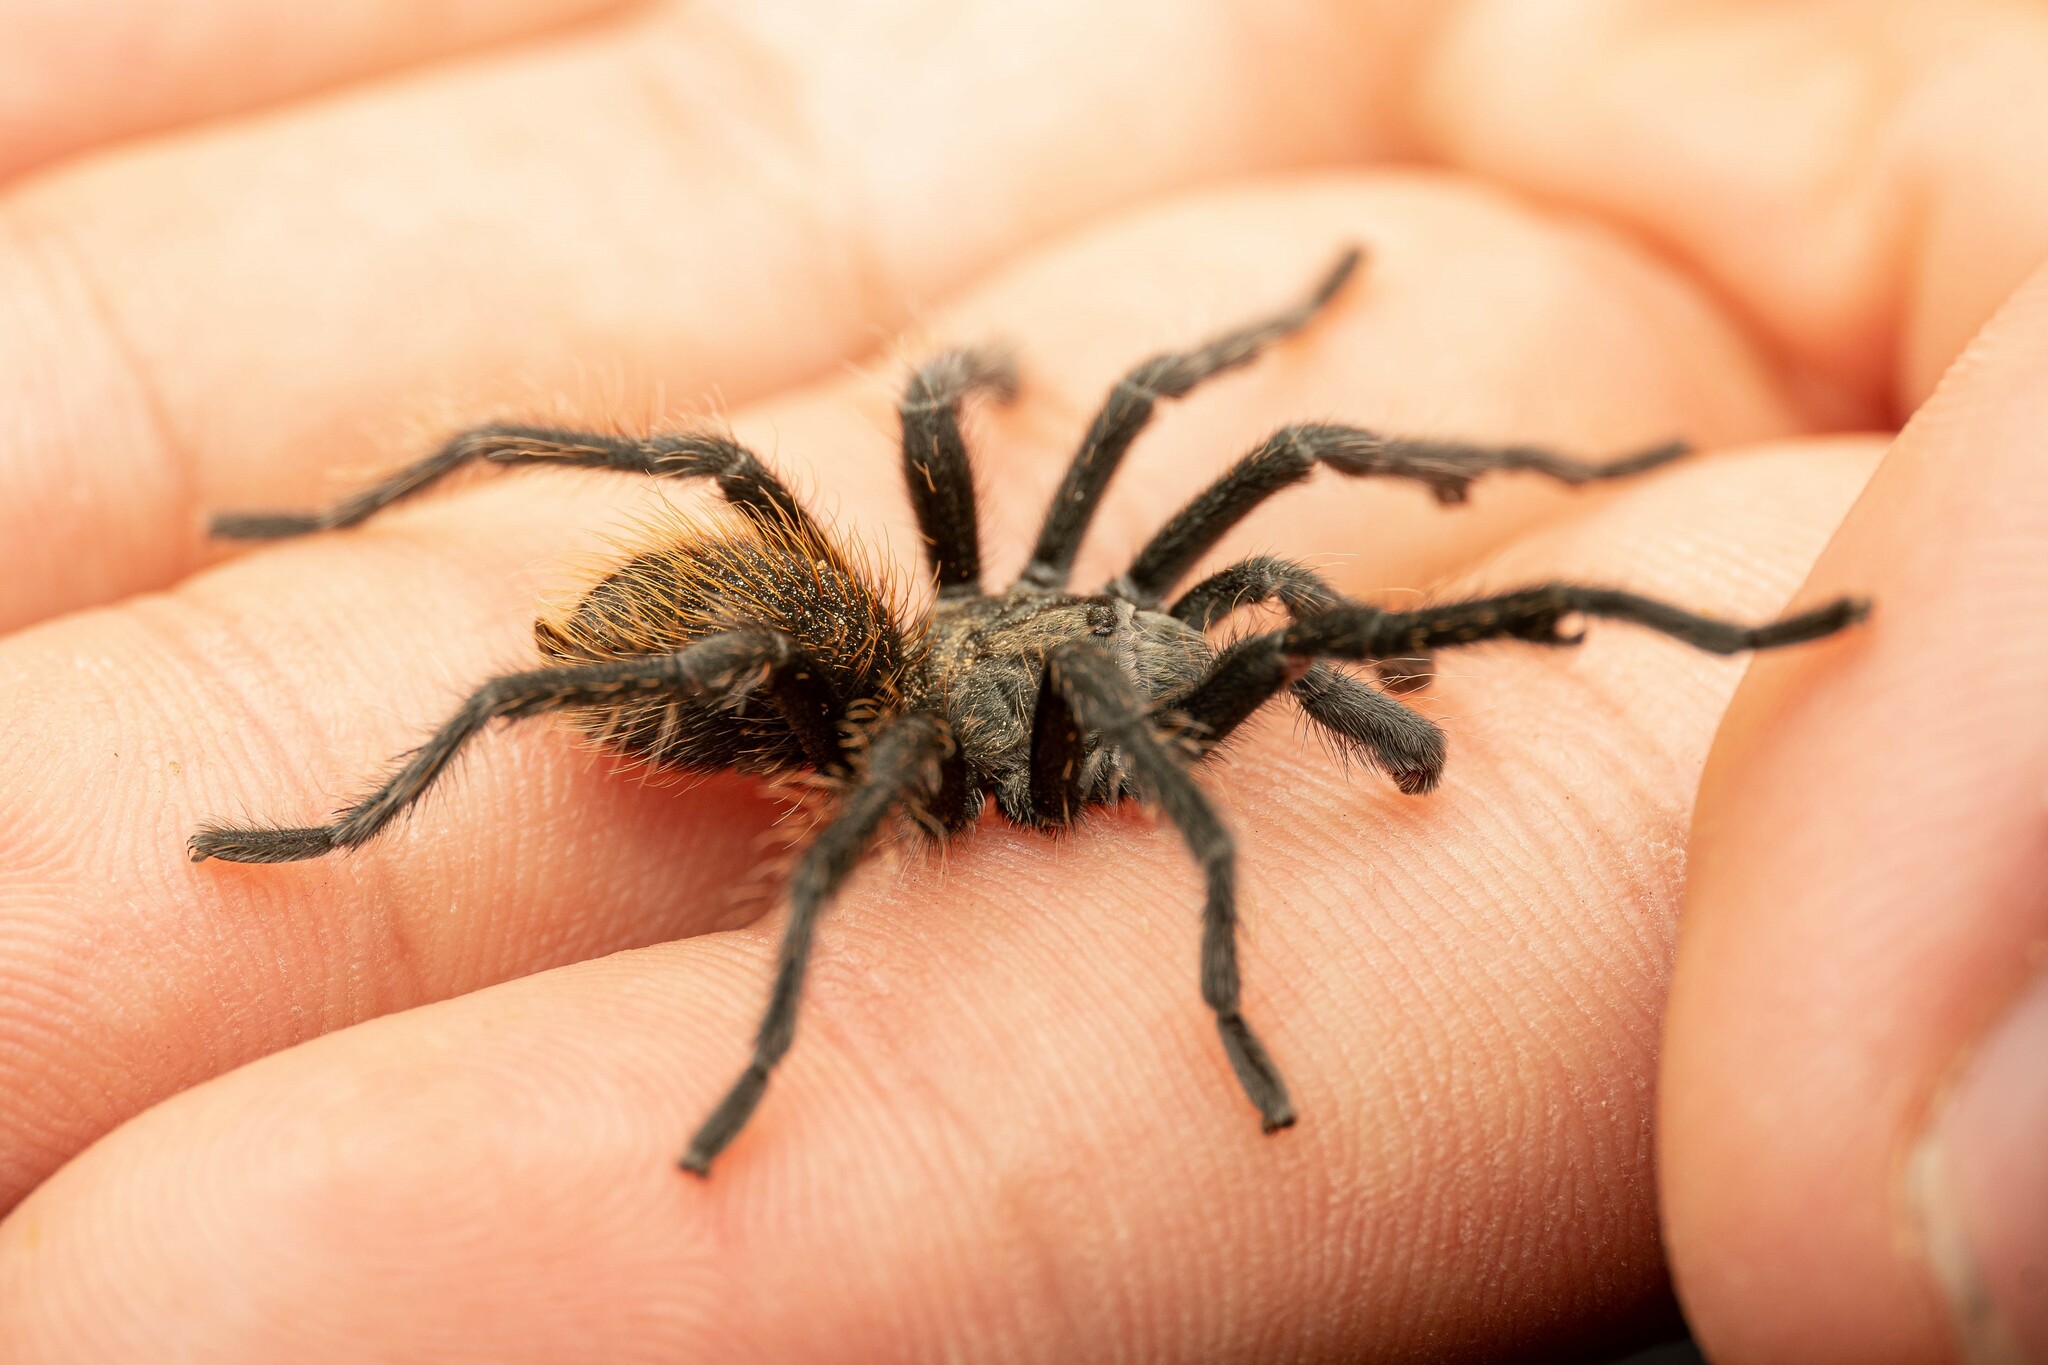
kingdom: Animalia
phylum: Arthropoda
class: Arachnida
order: Araneae
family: Theraphosidae
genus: Aphonopelma
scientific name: Aphonopelma paloma
